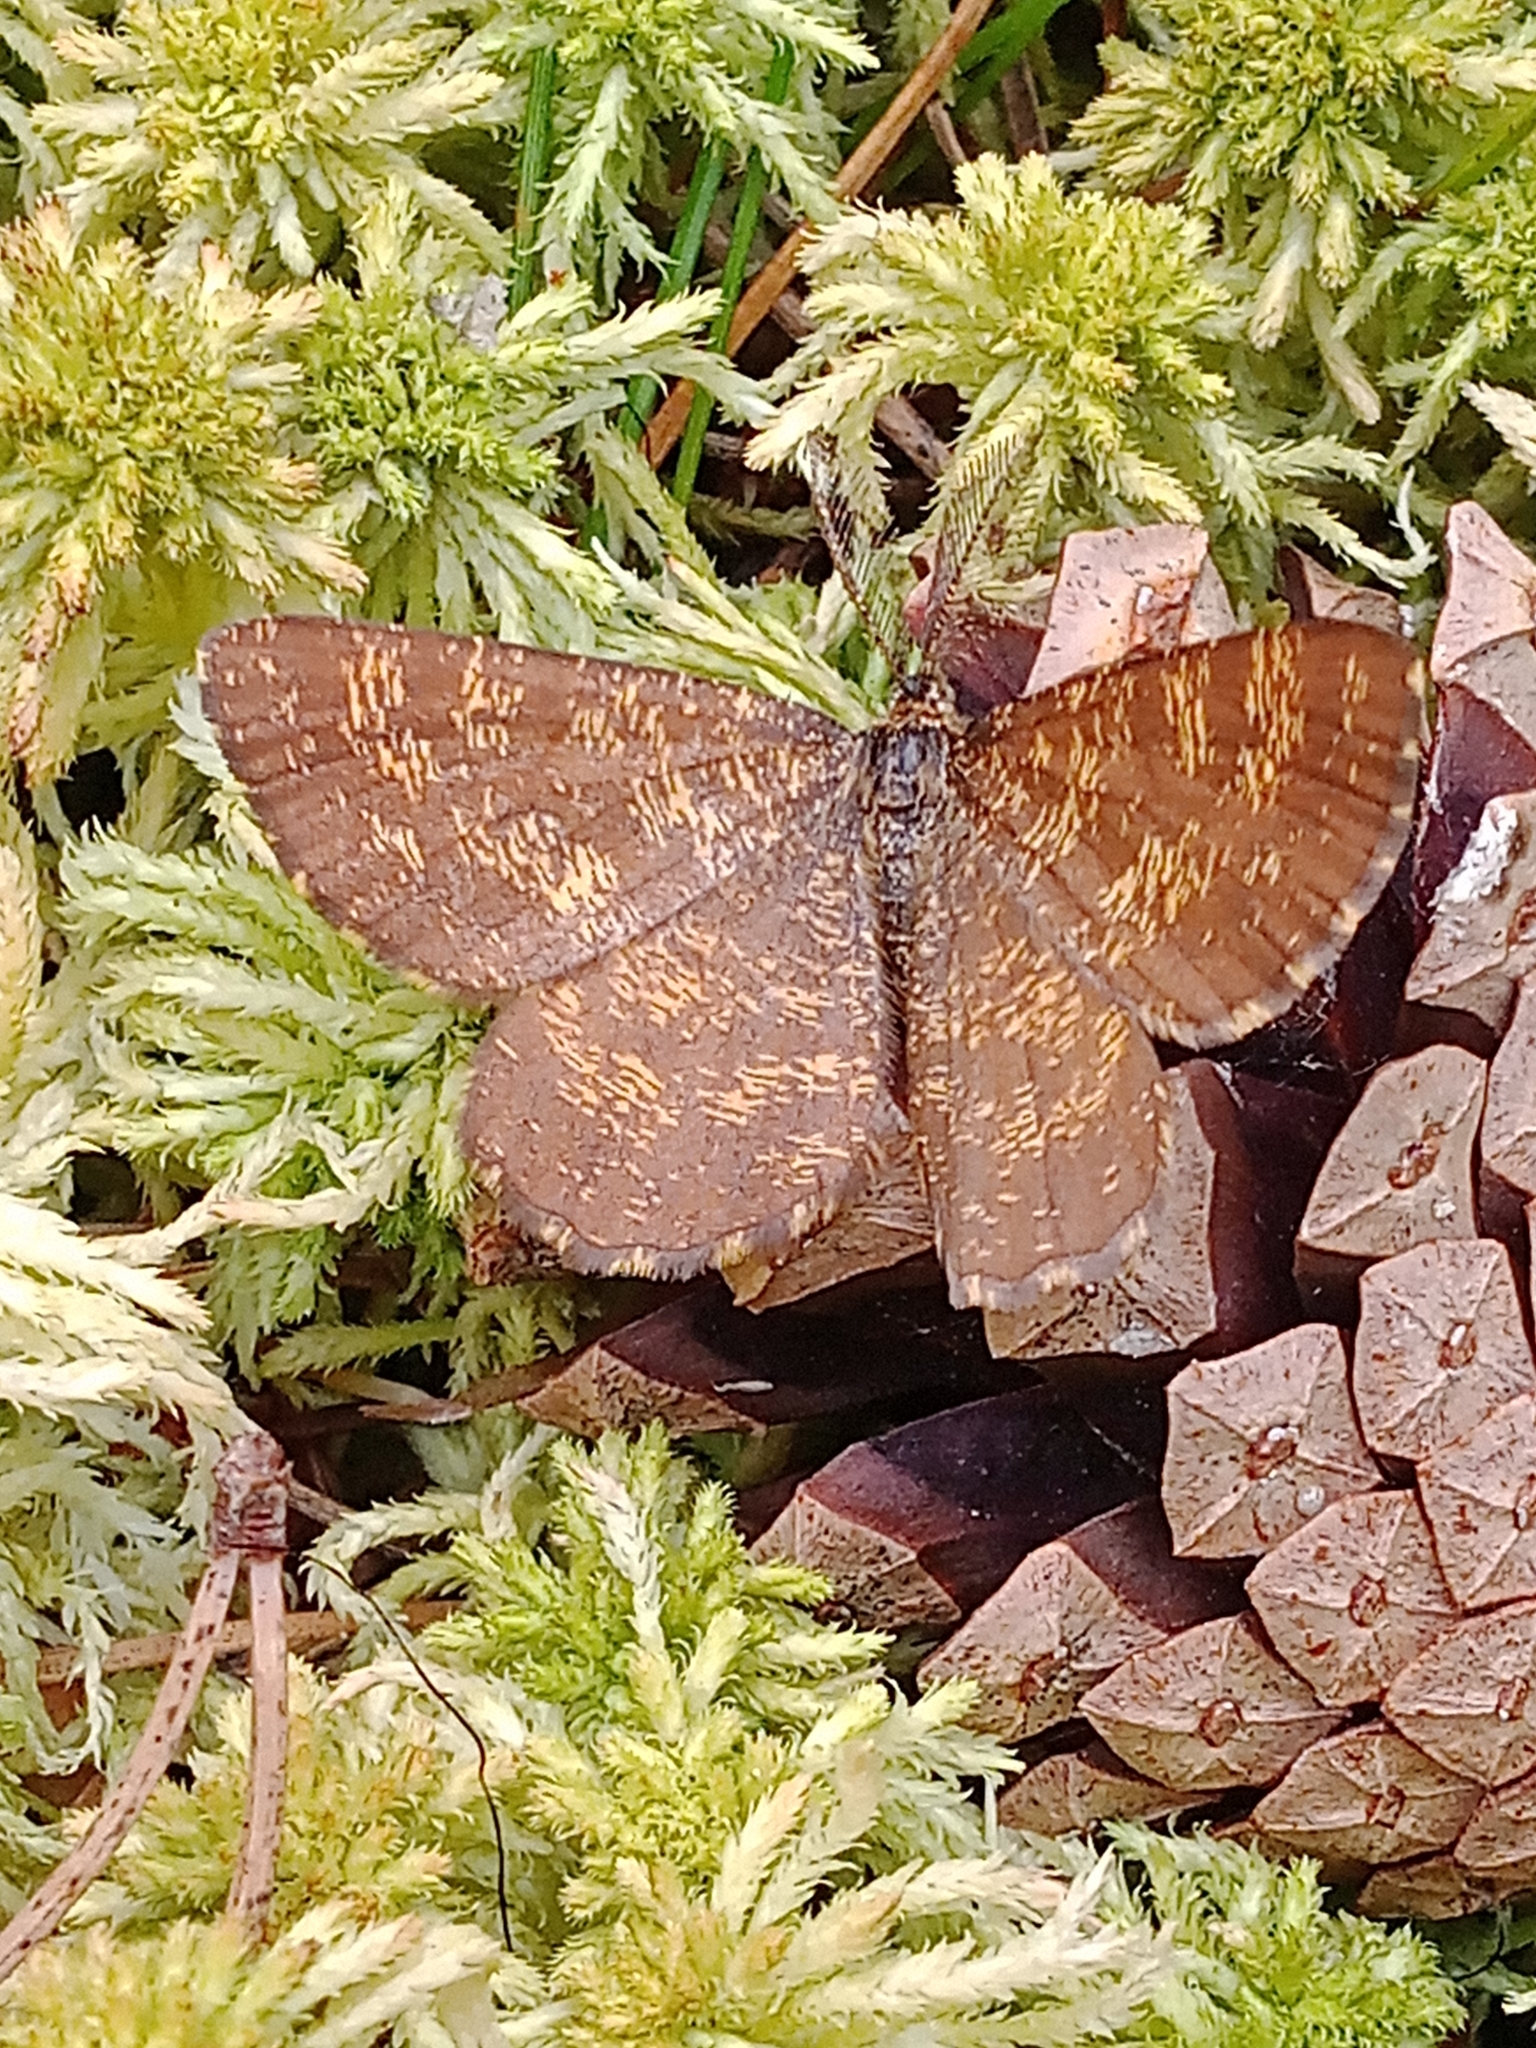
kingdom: Animalia
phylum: Arthropoda
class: Insecta
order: Lepidoptera
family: Geometridae
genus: Ematurga
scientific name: Ematurga atomaria
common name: Common heath
